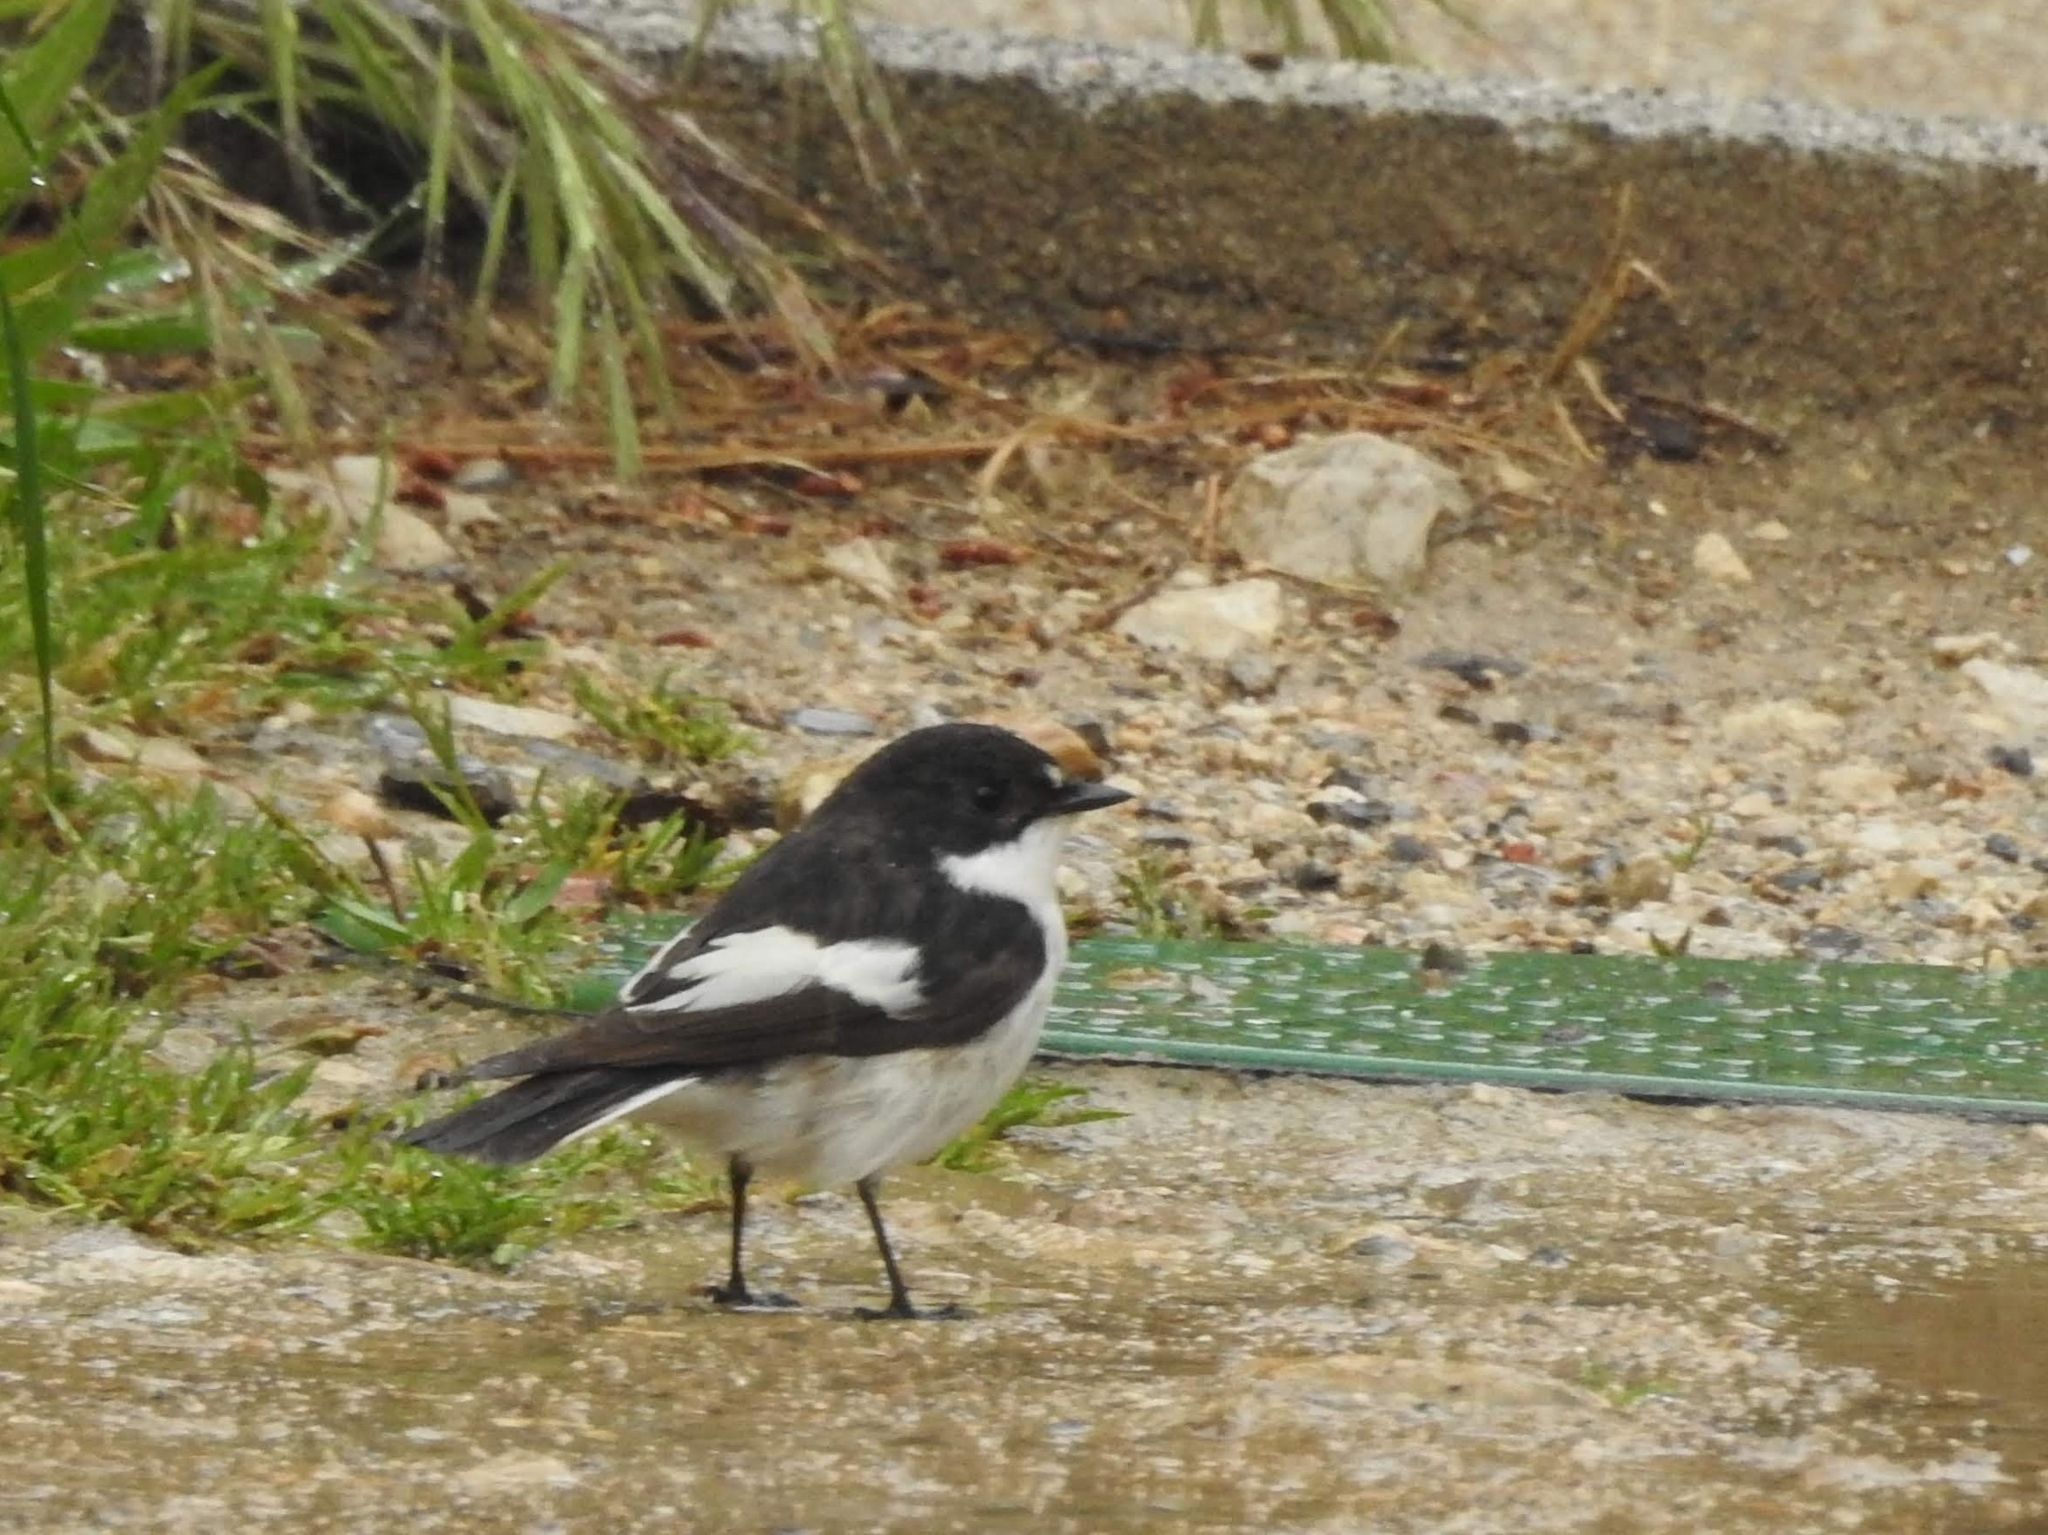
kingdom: Animalia
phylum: Chordata
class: Aves
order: Passeriformes
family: Muscicapidae
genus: Ficedula
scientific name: Ficedula hypoleuca
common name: European pied flycatcher
